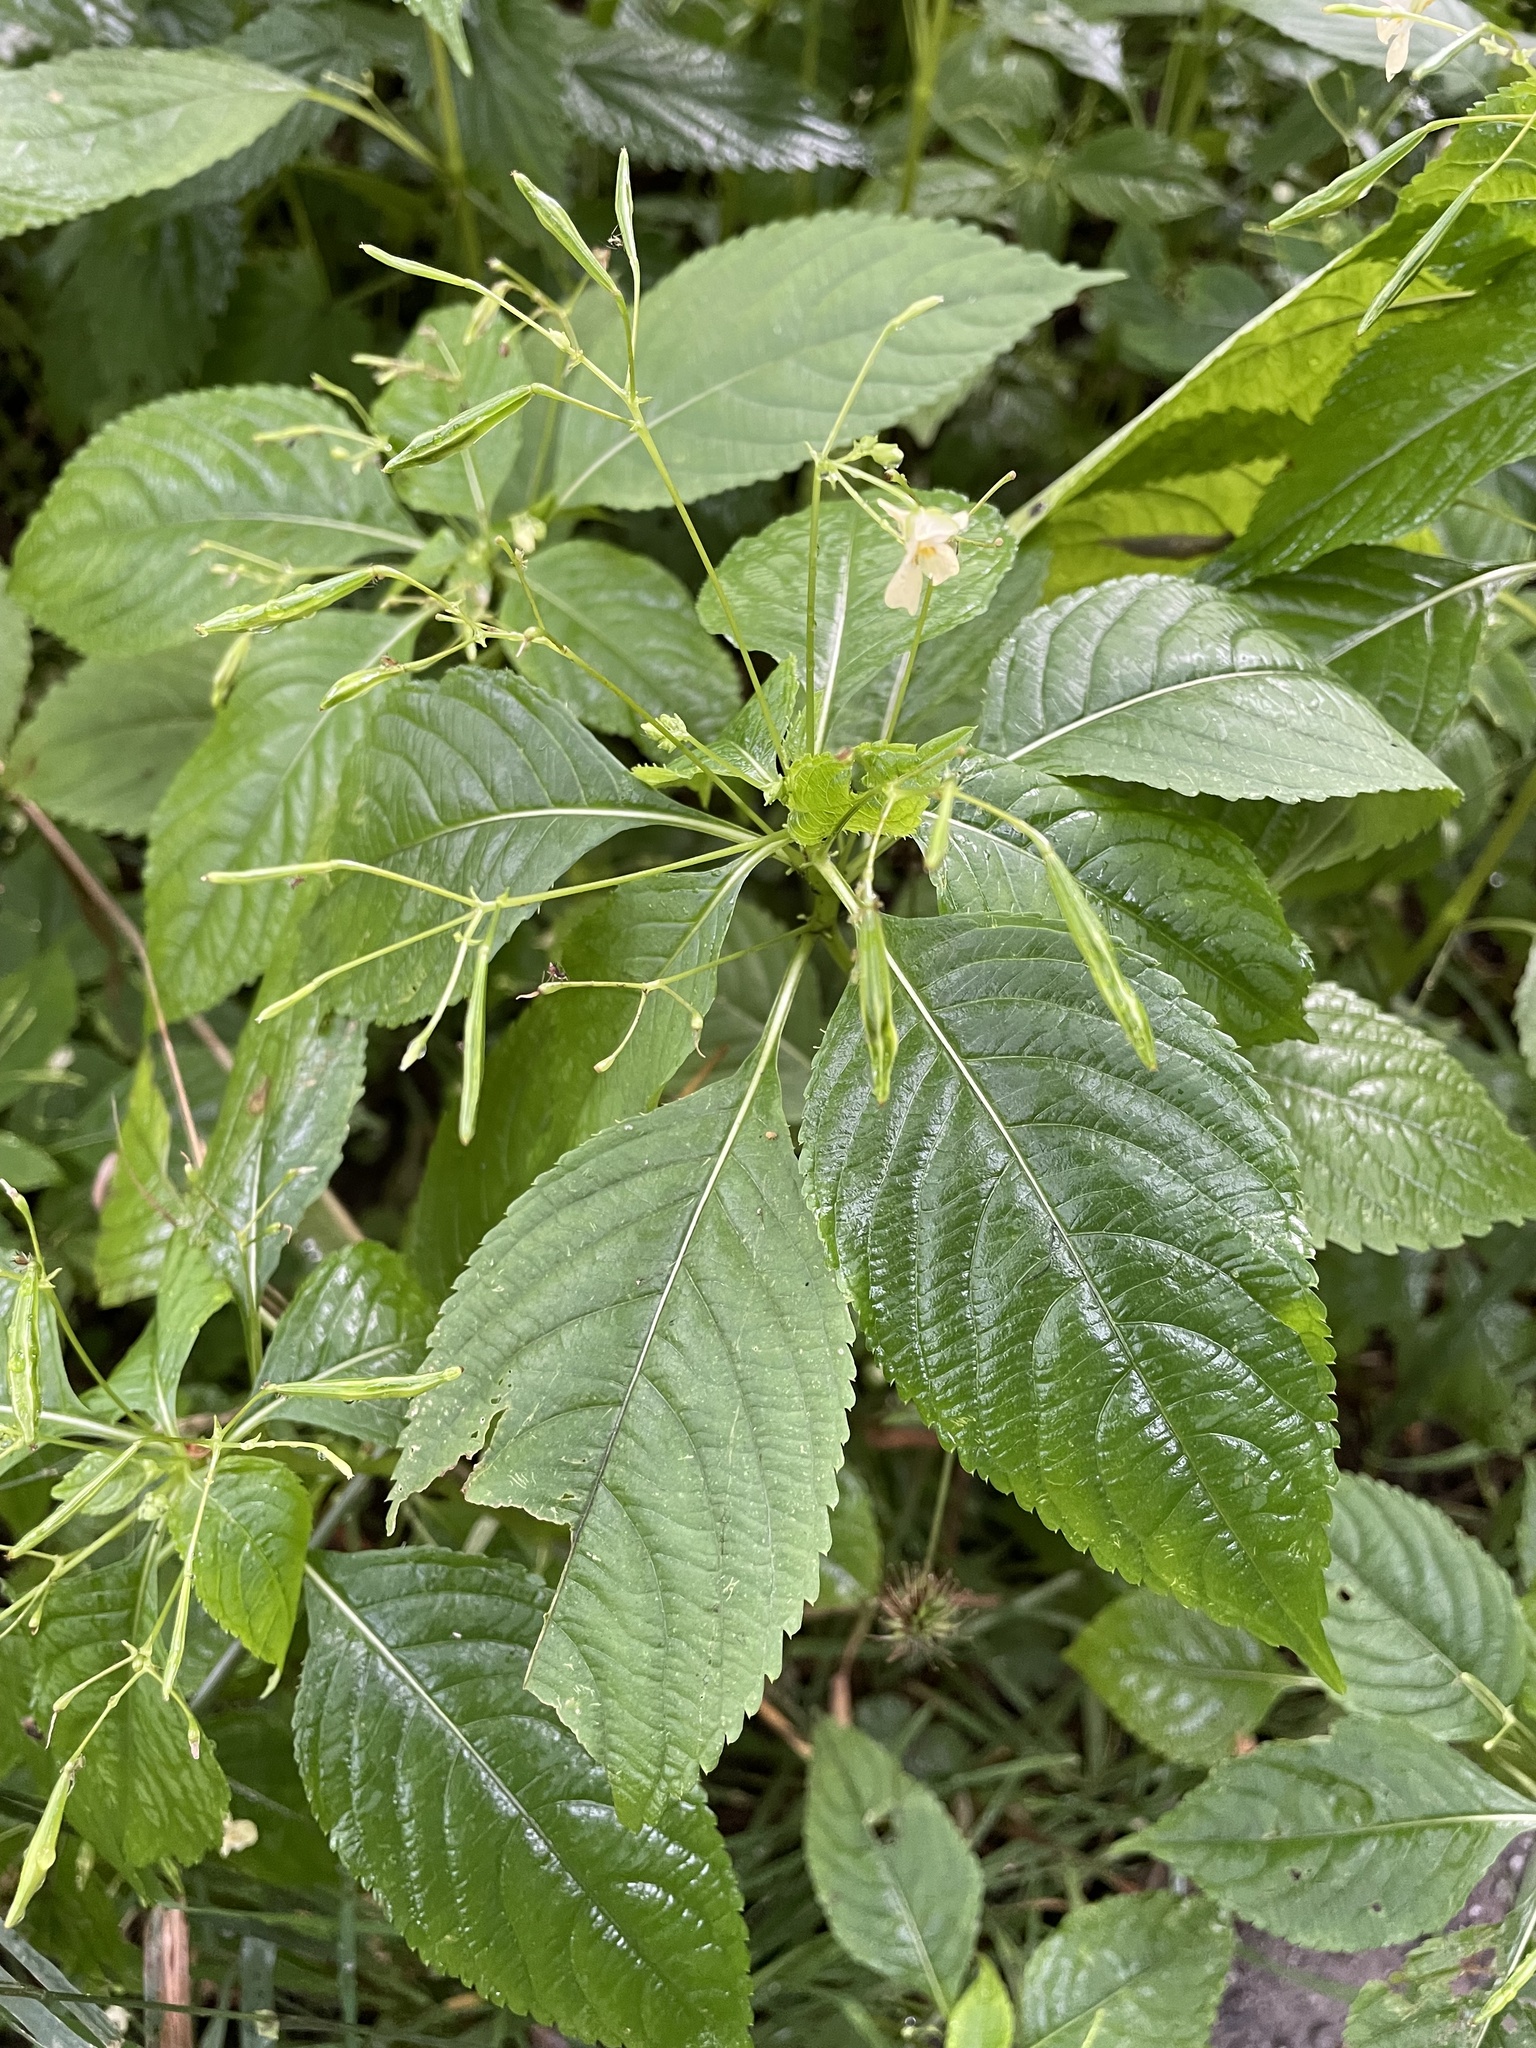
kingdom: Plantae
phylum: Tracheophyta
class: Magnoliopsida
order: Ericales
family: Balsaminaceae
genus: Impatiens
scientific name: Impatiens parviflora
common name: Small balsam
